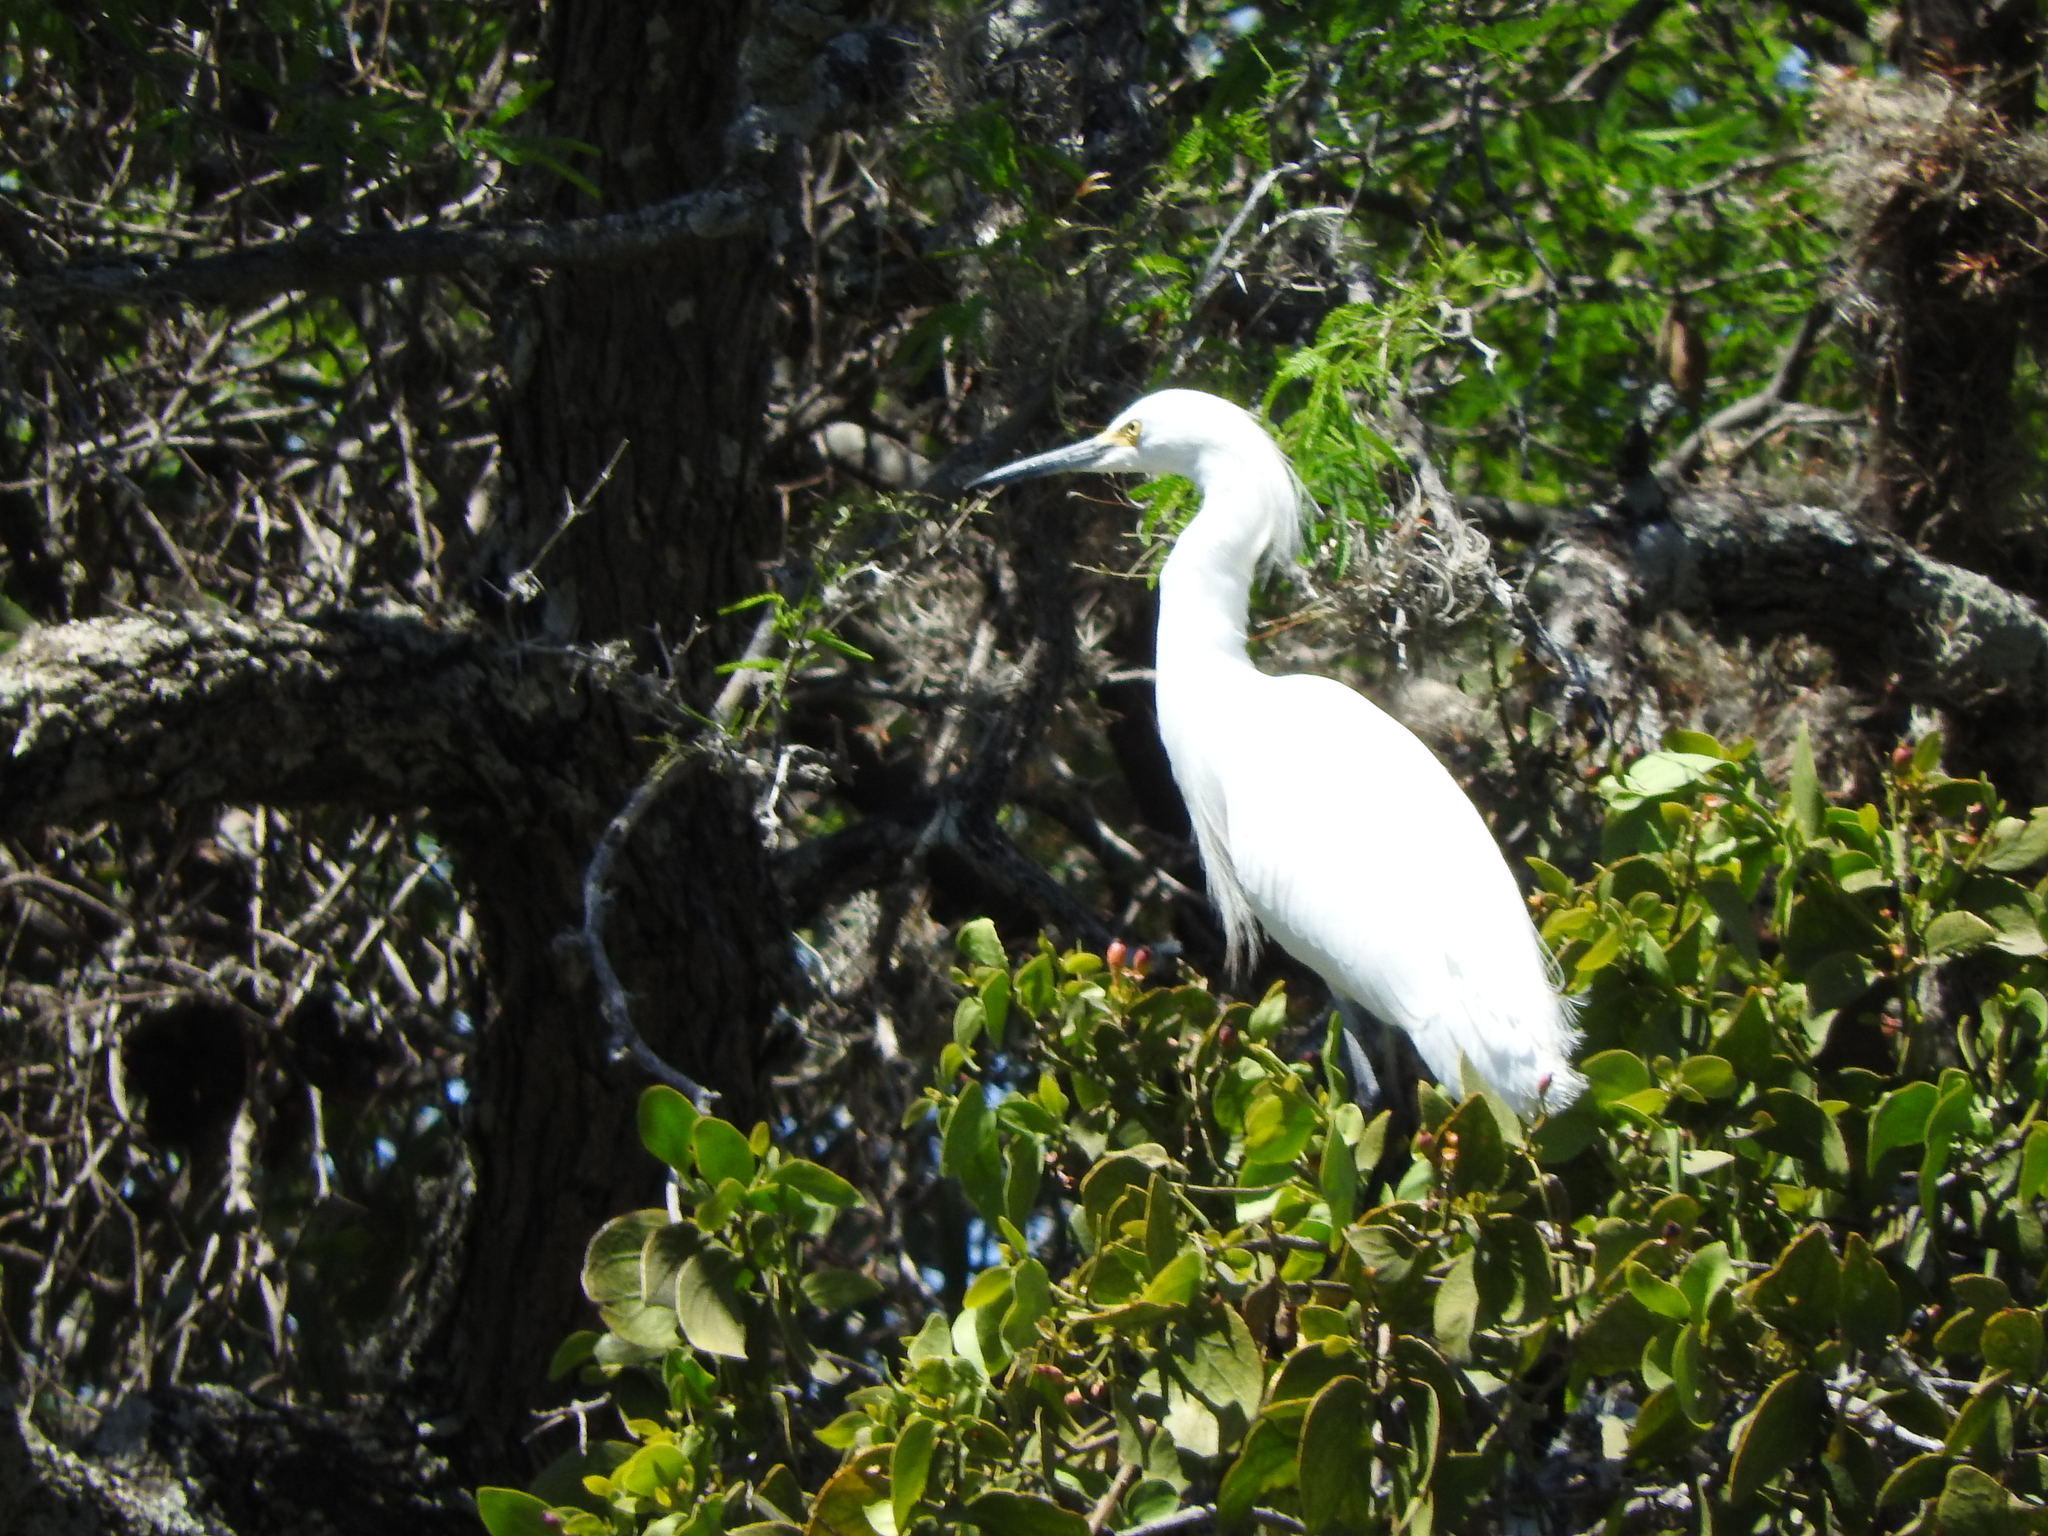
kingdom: Animalia
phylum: Chordata
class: Aves
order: Pelecaniformes
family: Ardeidae
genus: Egretta
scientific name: Egretta thula
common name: Snowy egret
